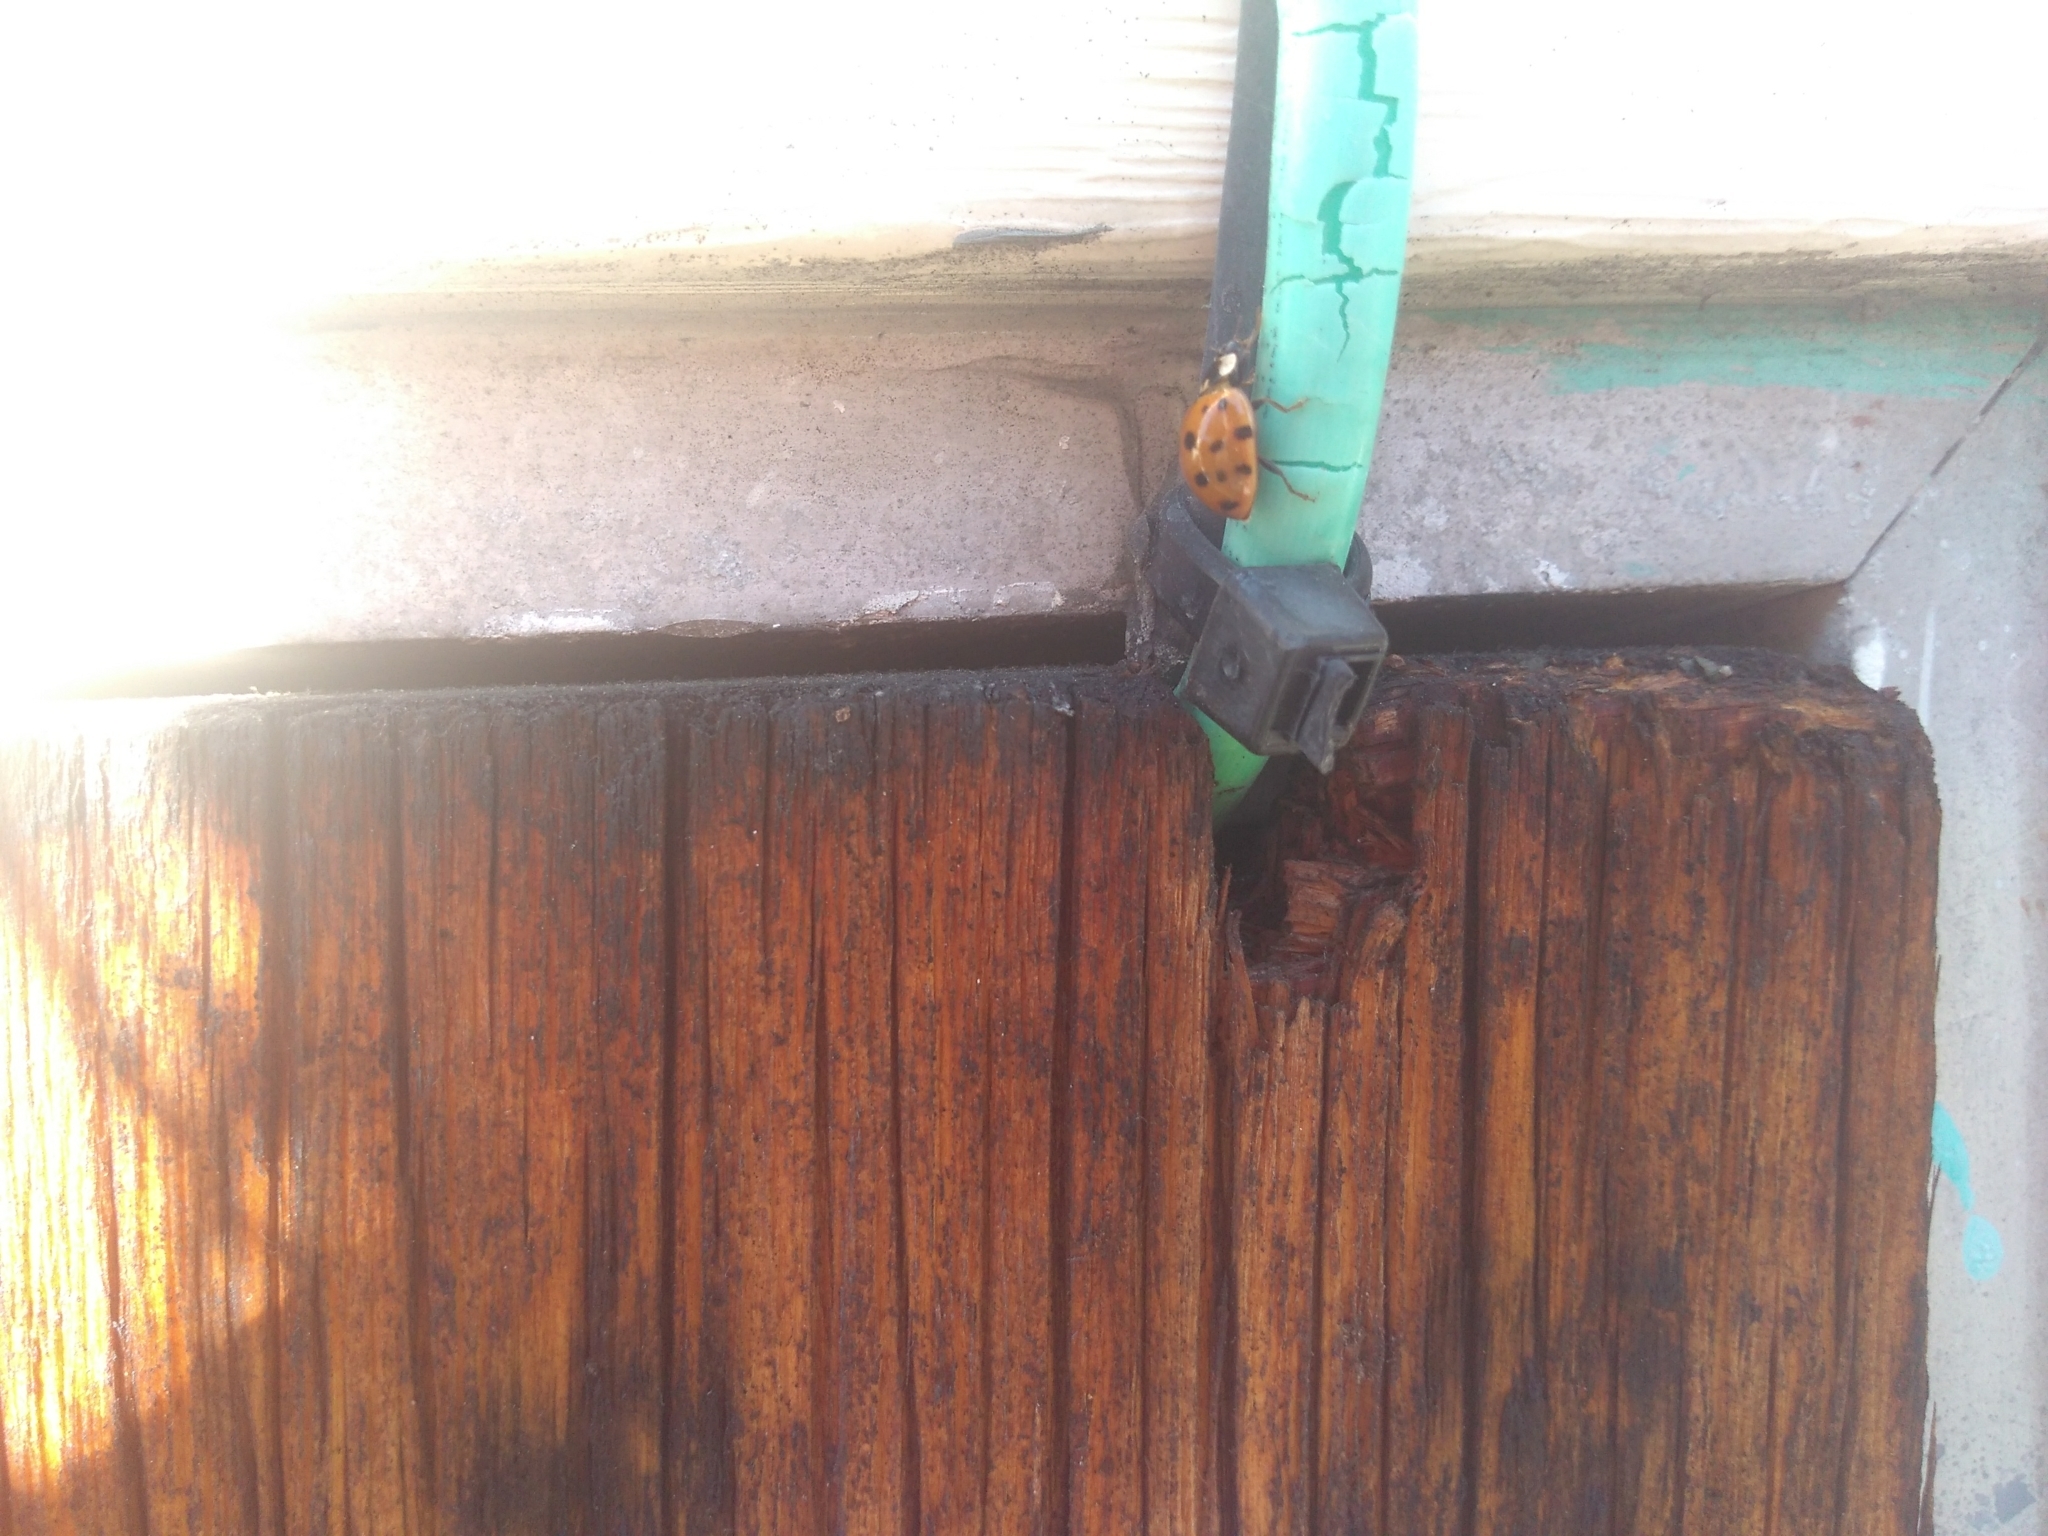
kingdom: Animalia
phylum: Arthropoda
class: Insecta
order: Coleoptera
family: Coccinellidae
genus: Harmonia
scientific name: Harmonia axyridis
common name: Harlequin ladybird
